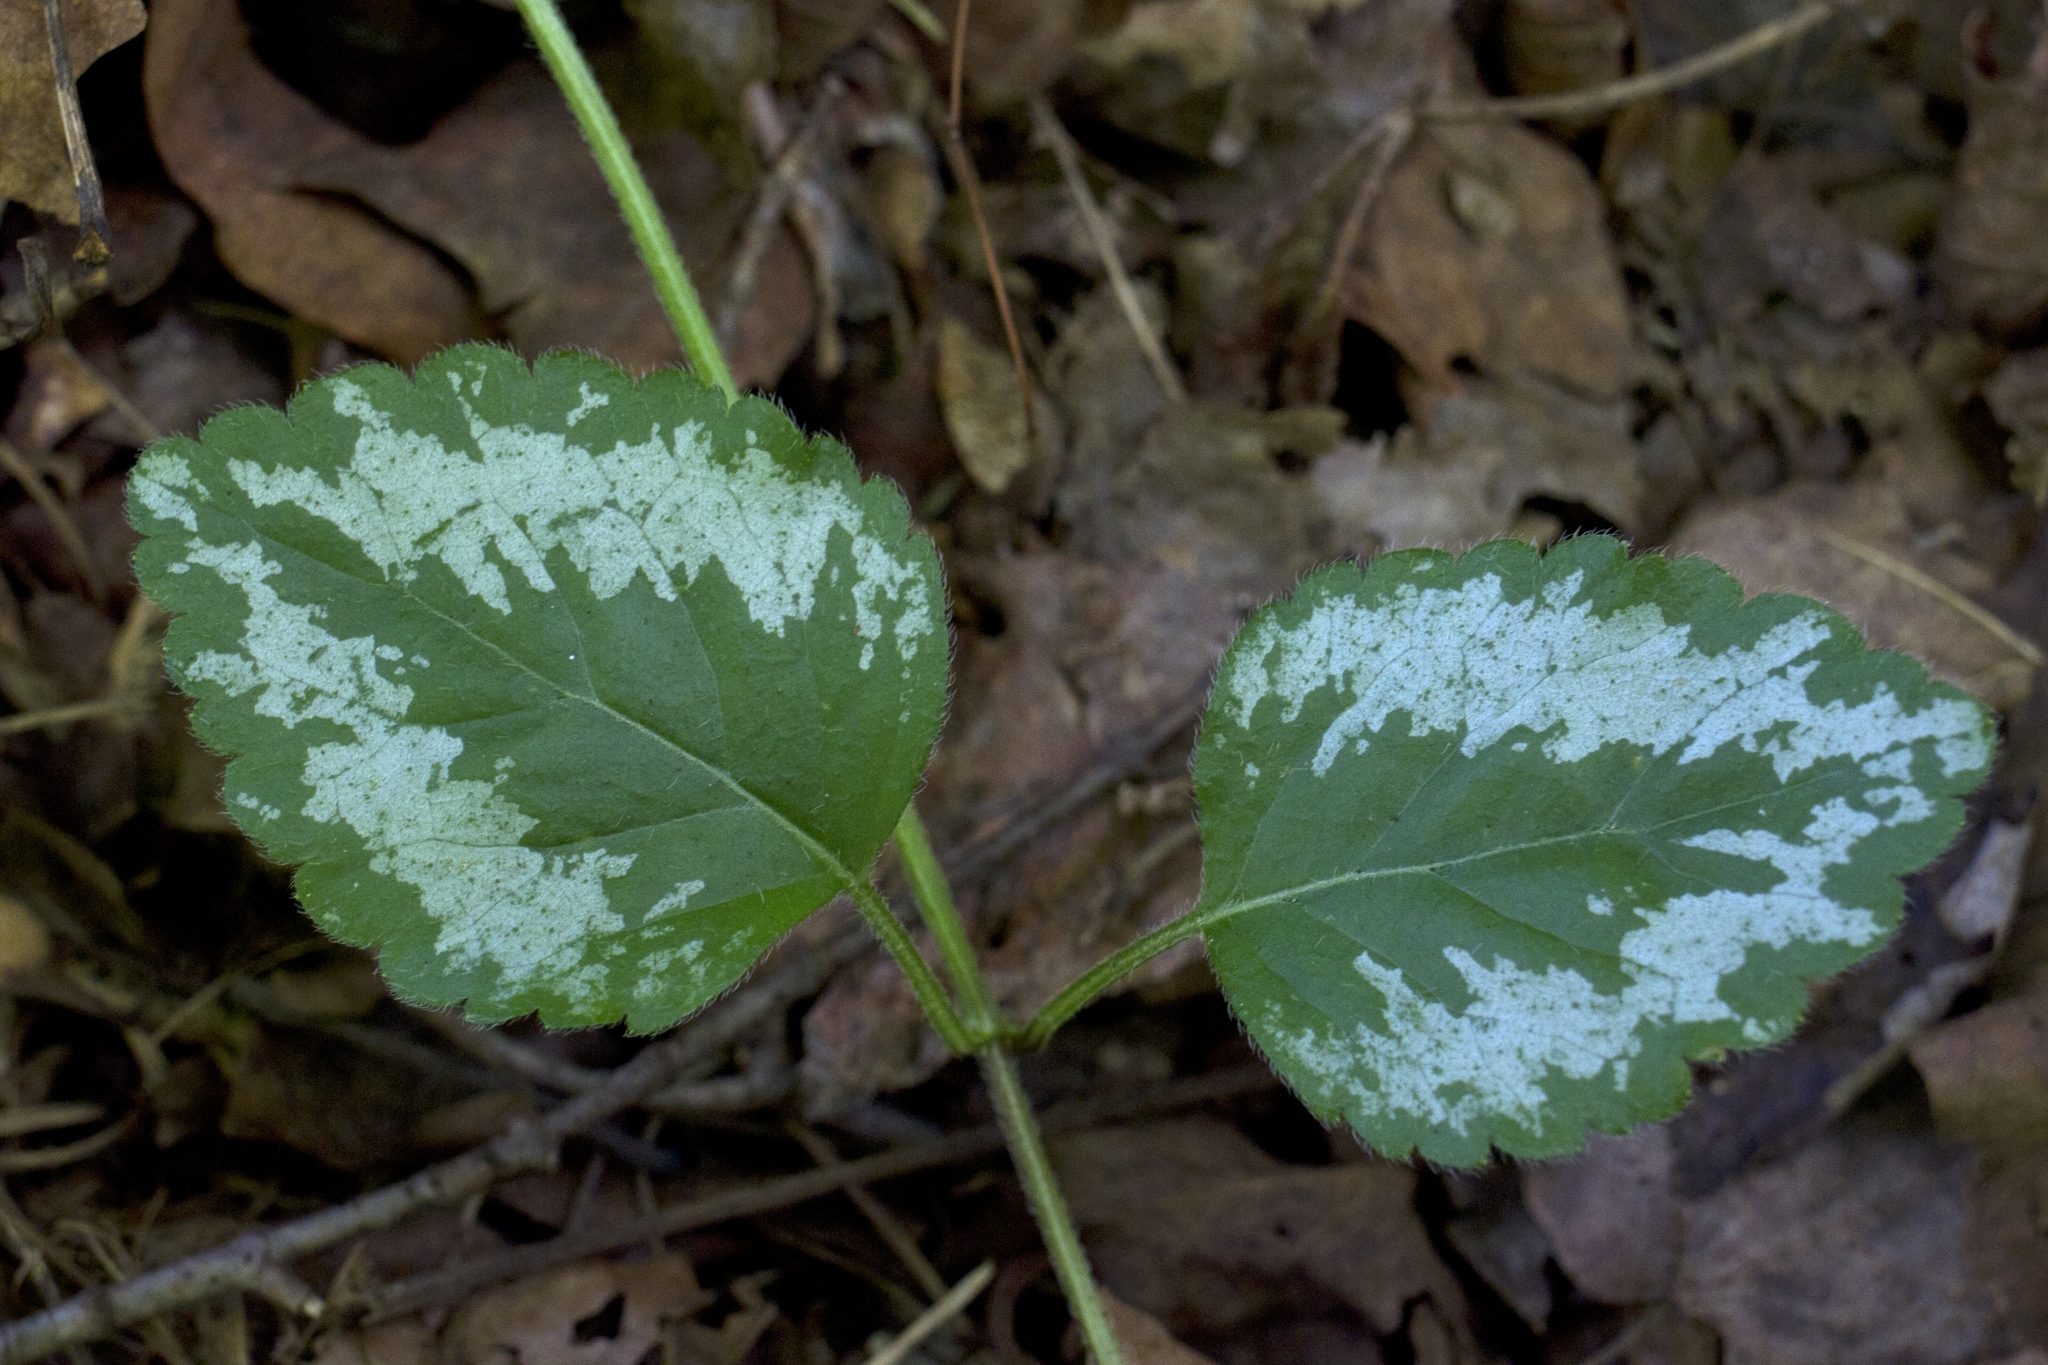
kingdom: Plantae
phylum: Tracheophyta
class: Magnoliopsida
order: Lamiales
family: Lamiaceae
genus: Lamium
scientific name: Lamium galeobdolon
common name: Yellow archangel
